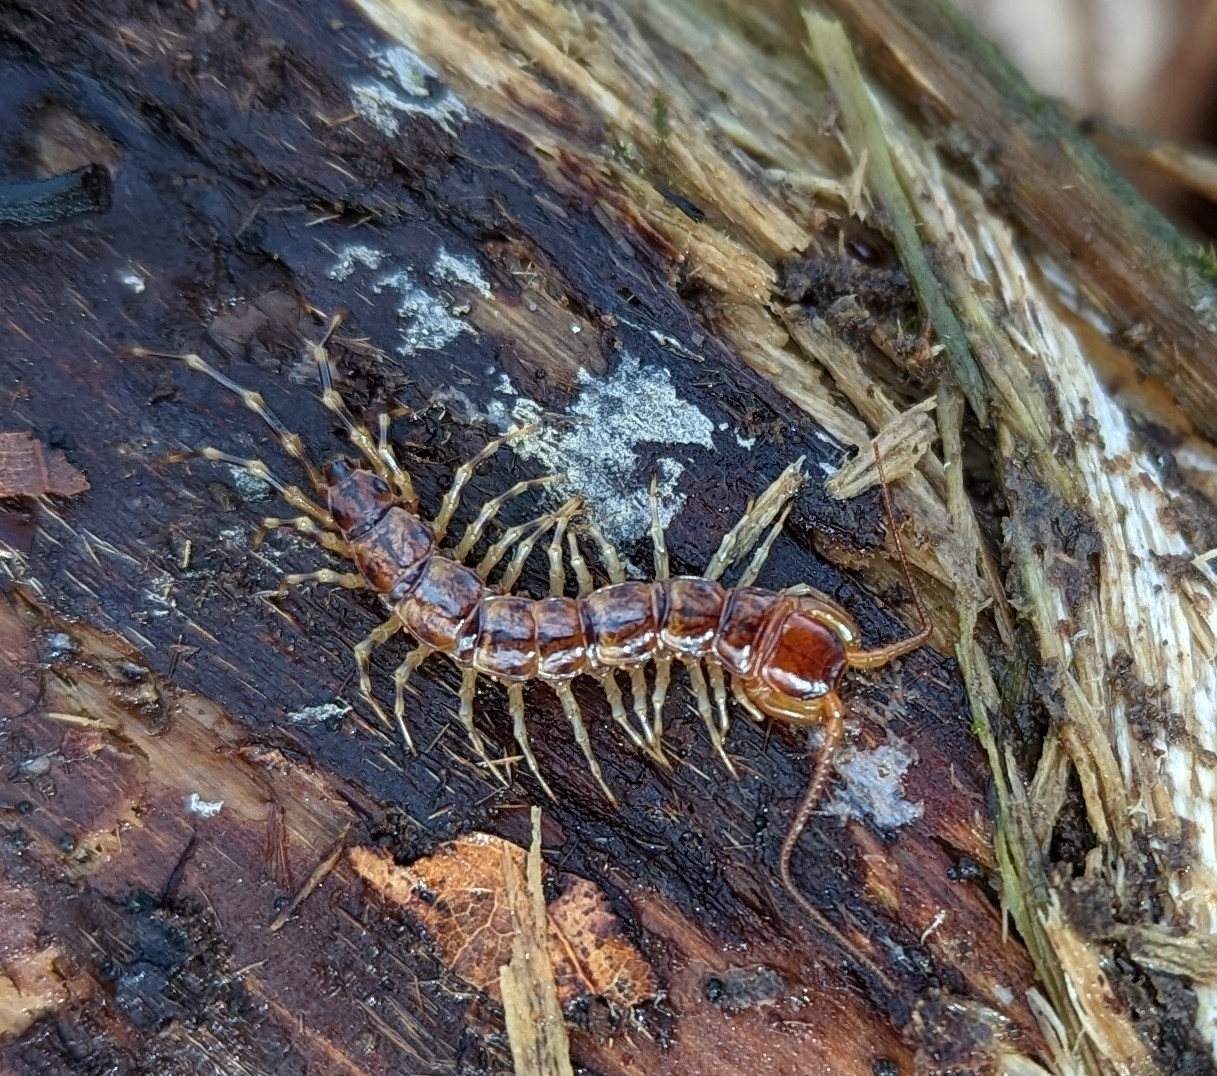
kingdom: Animalia
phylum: Arthropoda
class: Chilopoda
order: Lithobiomorpha
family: Lithobiidae
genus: Lithobius
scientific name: Lithobius variegatus
